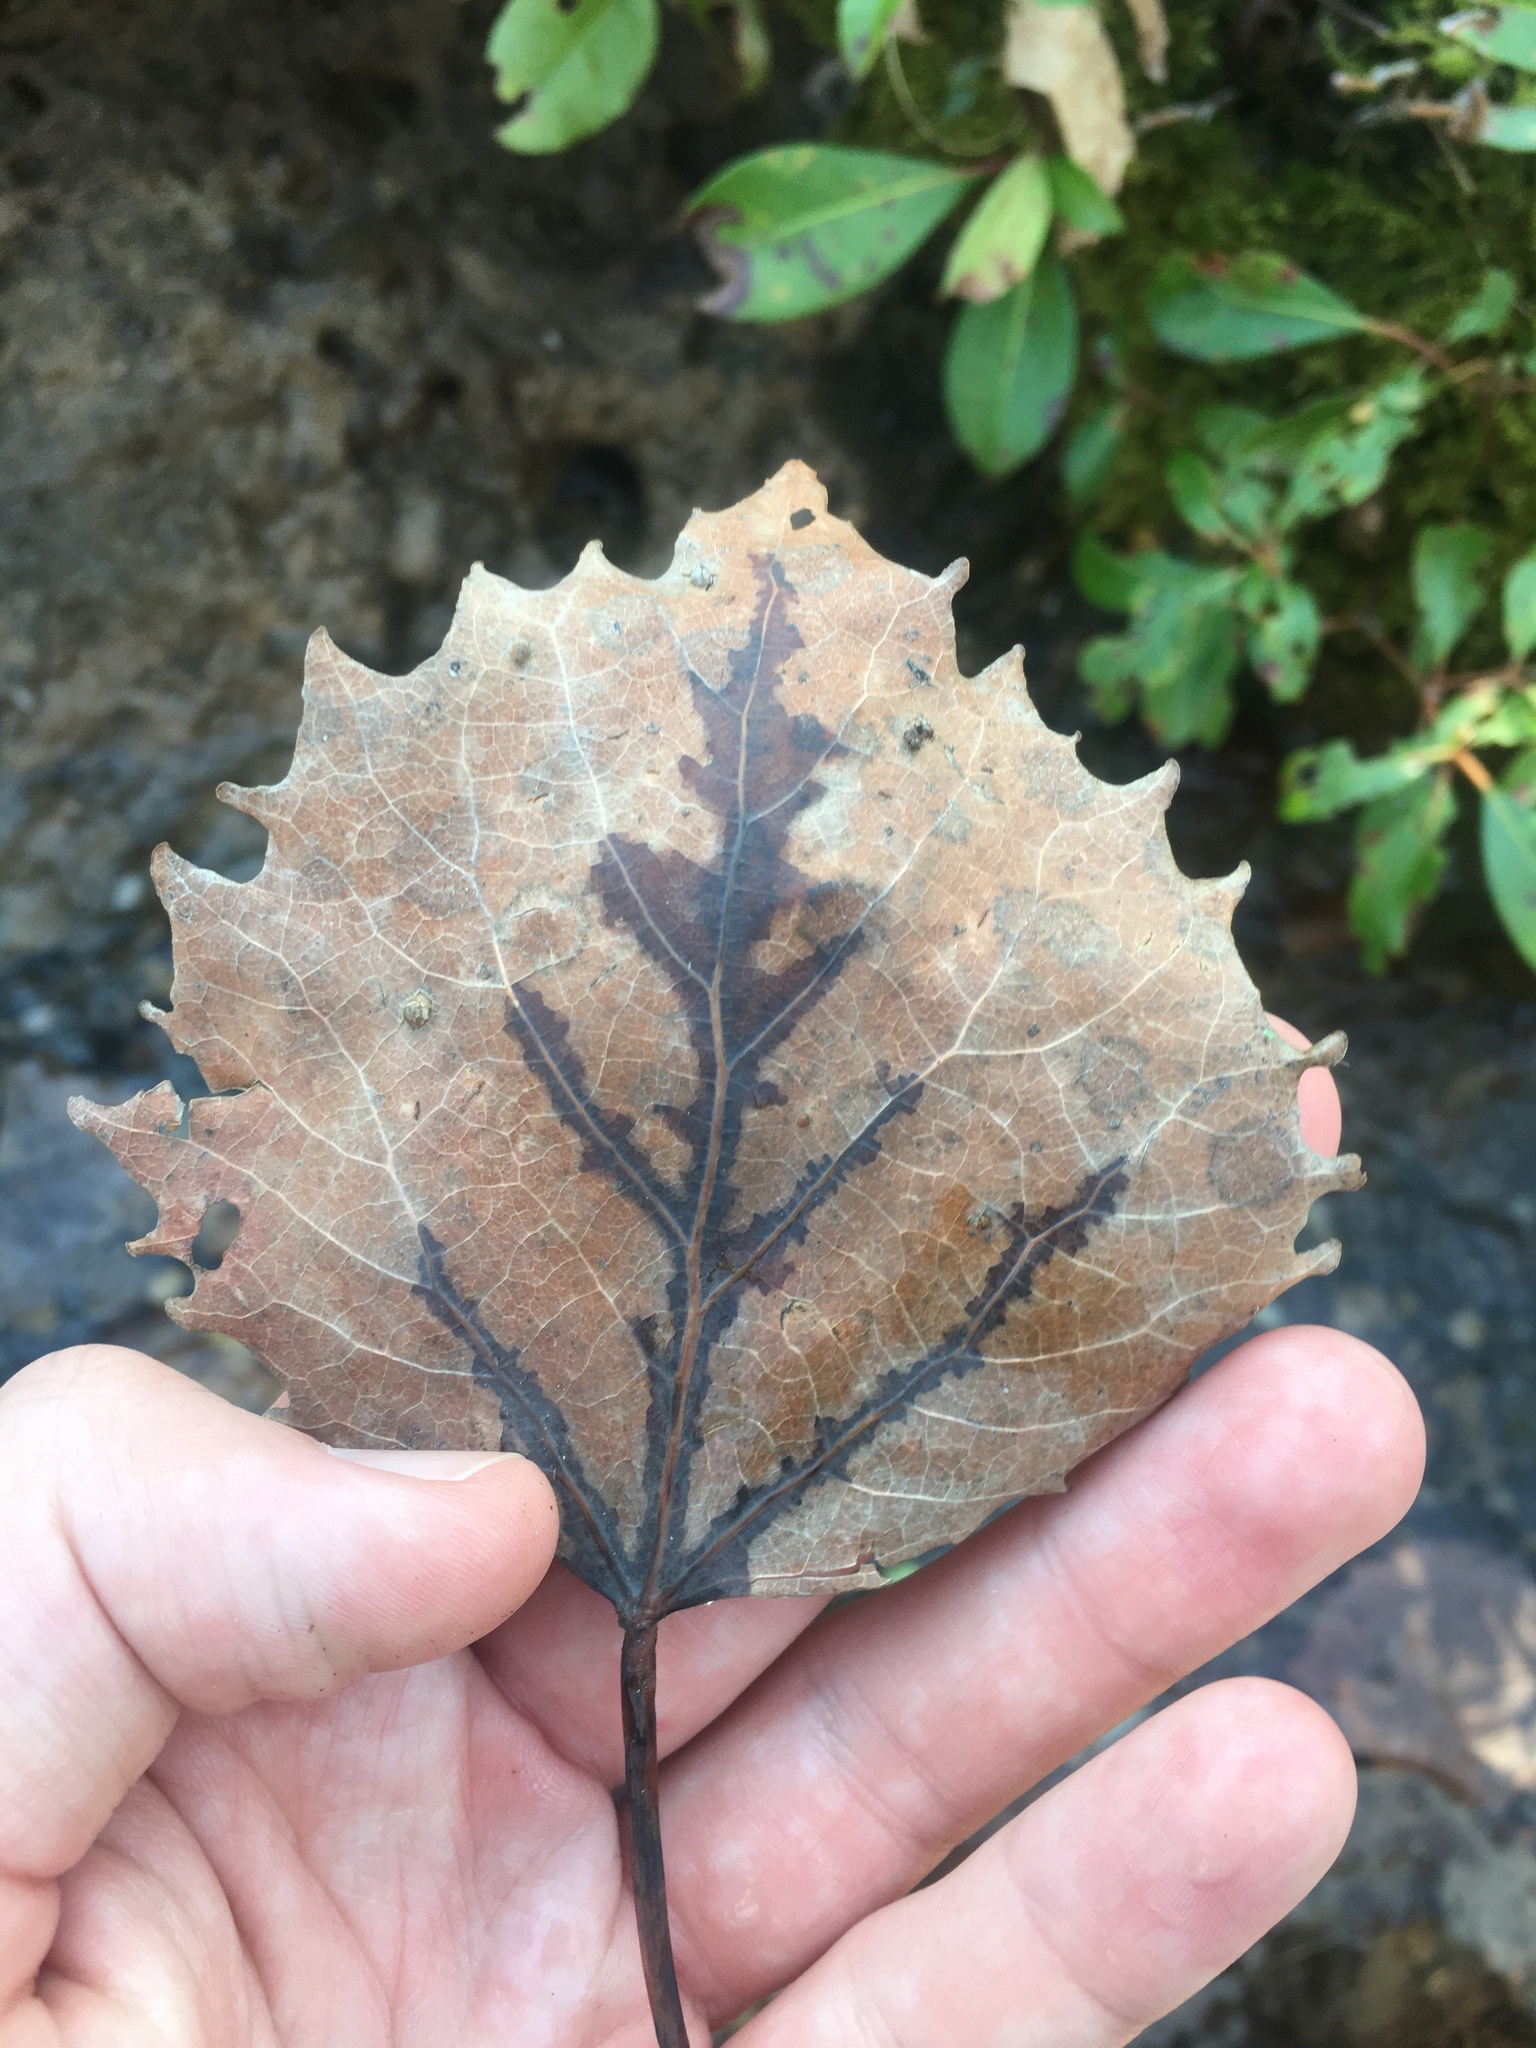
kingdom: Plantae
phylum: Tracheophyta
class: Magnoliopsida
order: Malpighiales
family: Salicaceae
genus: Populus
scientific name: Populus grandidentata
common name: Bigtooth aspen
